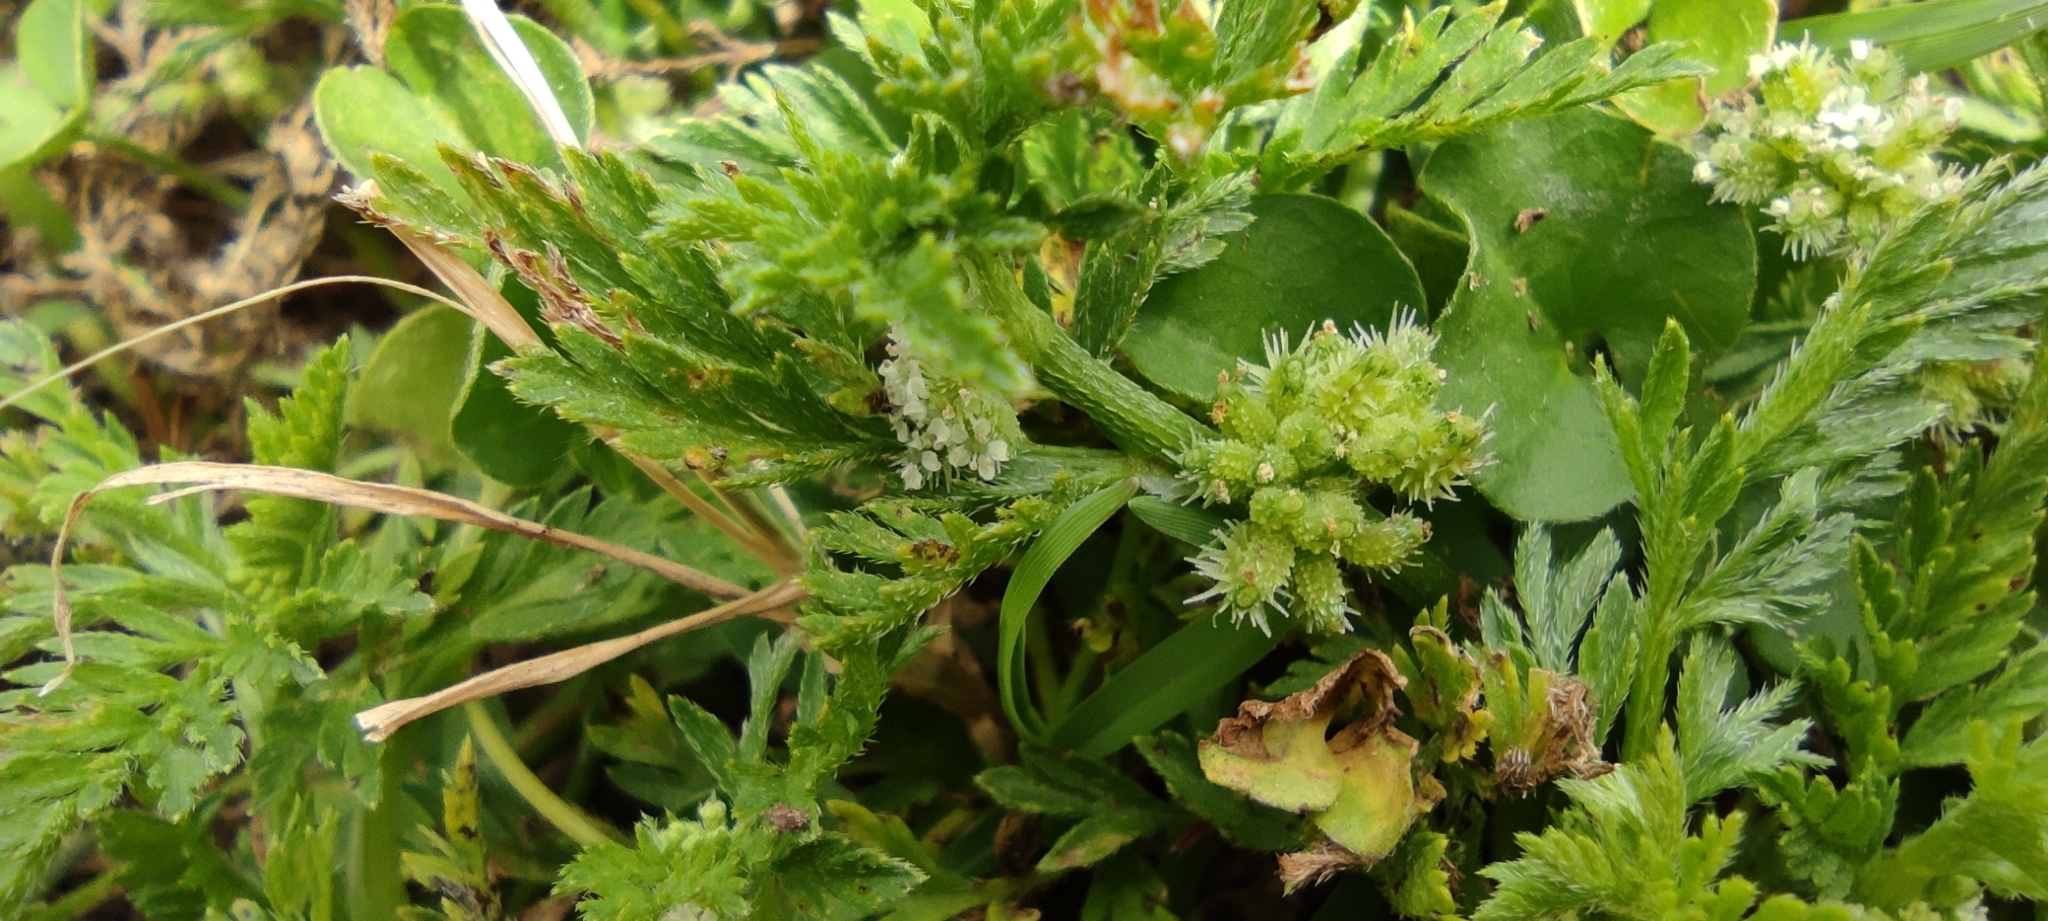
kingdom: Plantae
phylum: Tracheophyta
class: Magnoliopsida
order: Apiales
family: Apiaceae
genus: Torilis
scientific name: Torilis nodosa
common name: Knotted hedge-parsley
